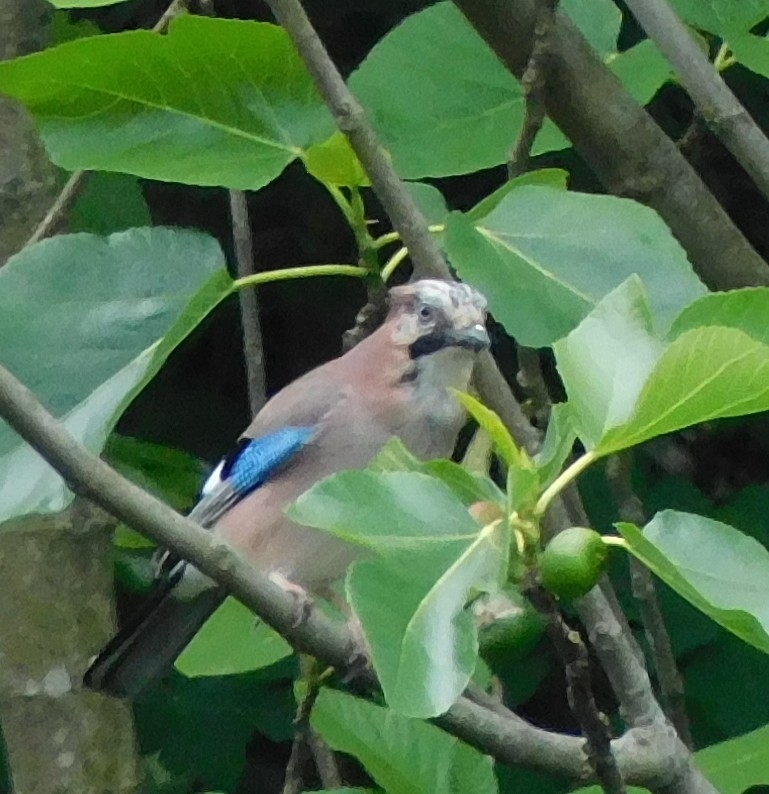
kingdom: Animalia
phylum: Chordata
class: Aves
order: Passeriformes
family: Corvidae
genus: Garrulus
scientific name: Garrulus glandarius
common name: Eurasian jay
